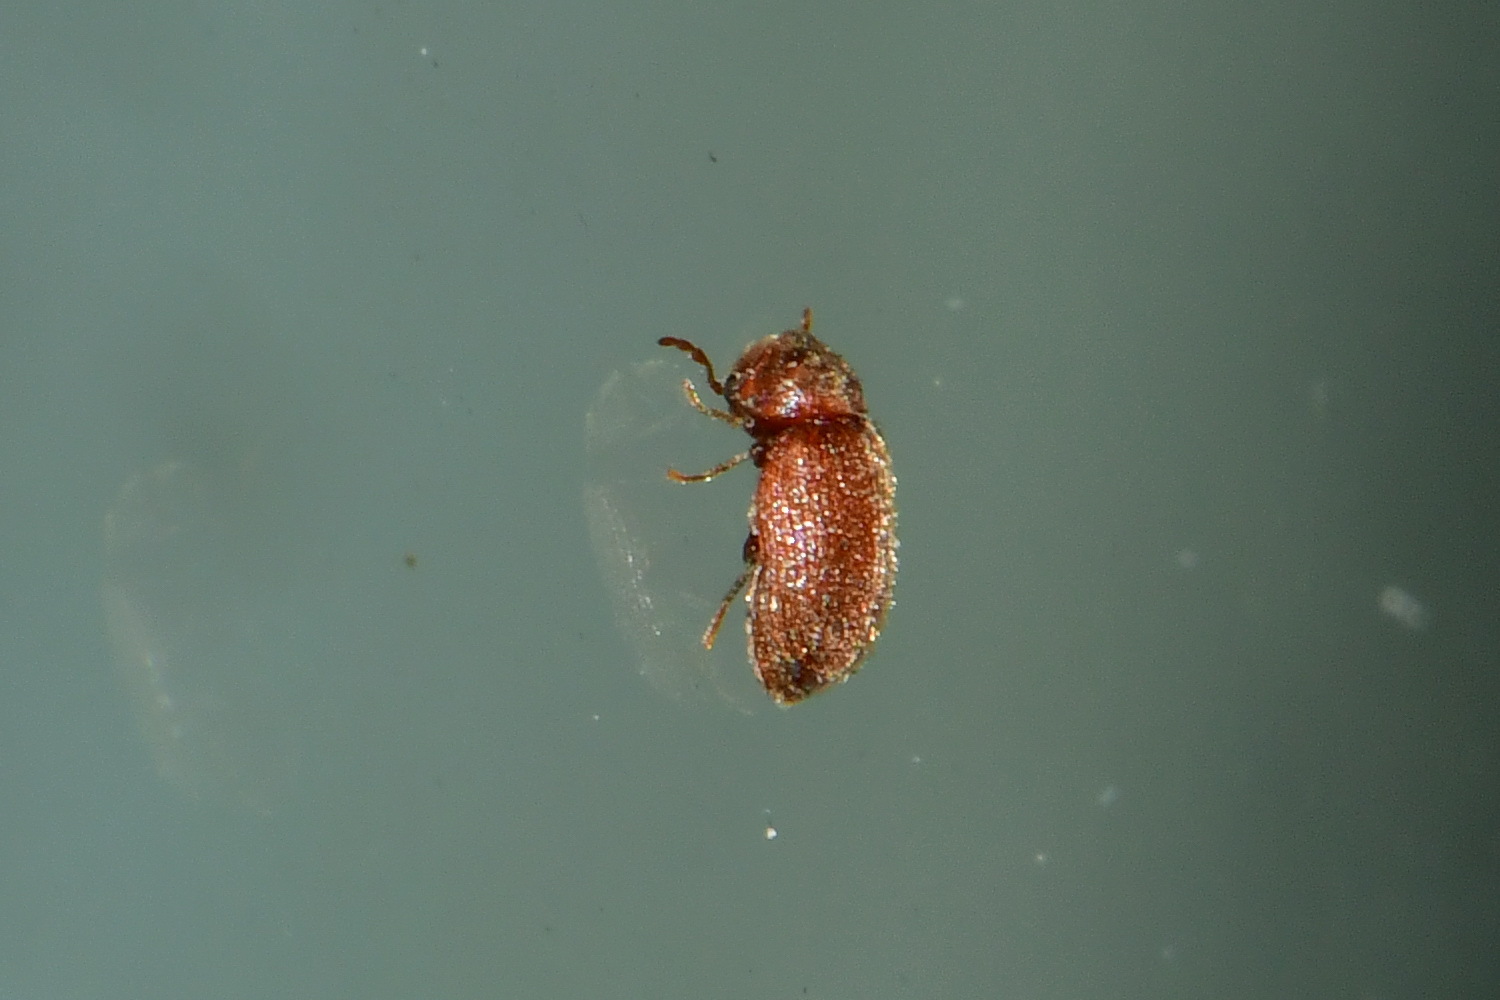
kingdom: Animalia
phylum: Arthropoda
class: Insecta
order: Coleoptera
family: Anobiidae
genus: Stegobium
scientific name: Stegobium paniceum
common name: Drugstore beetle
